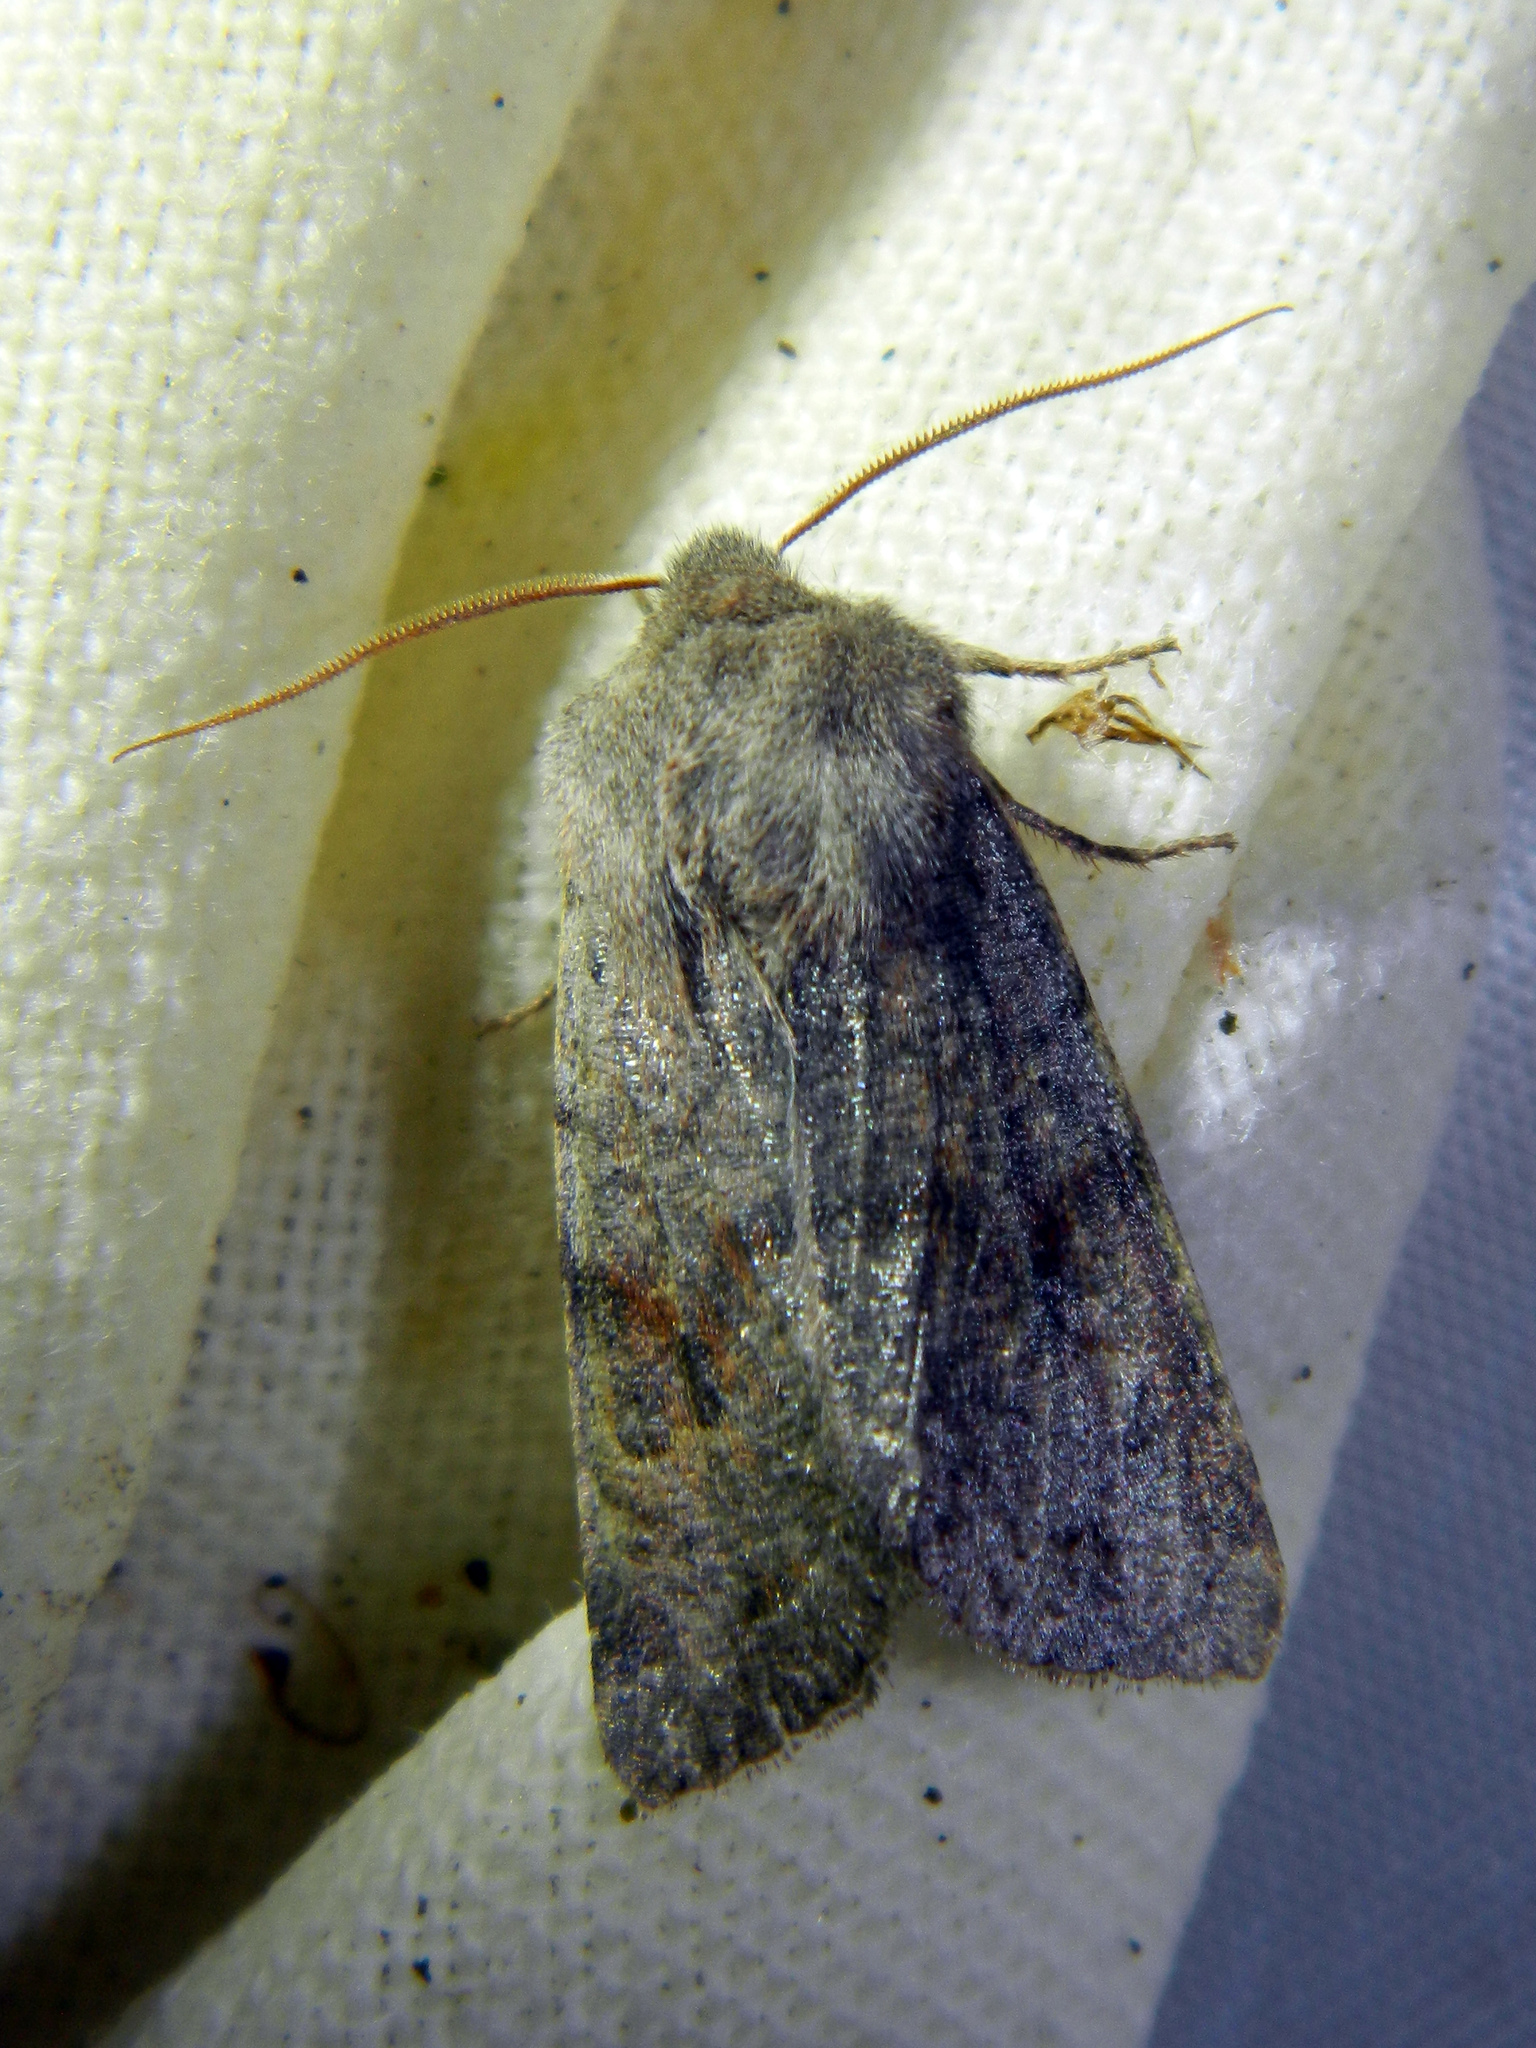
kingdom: Animalia
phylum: Arthropoda
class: Insecta
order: Lepidoptera
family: Noctuidae
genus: Orthosia
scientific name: Orthosia hibisci
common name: Green fruitworm
